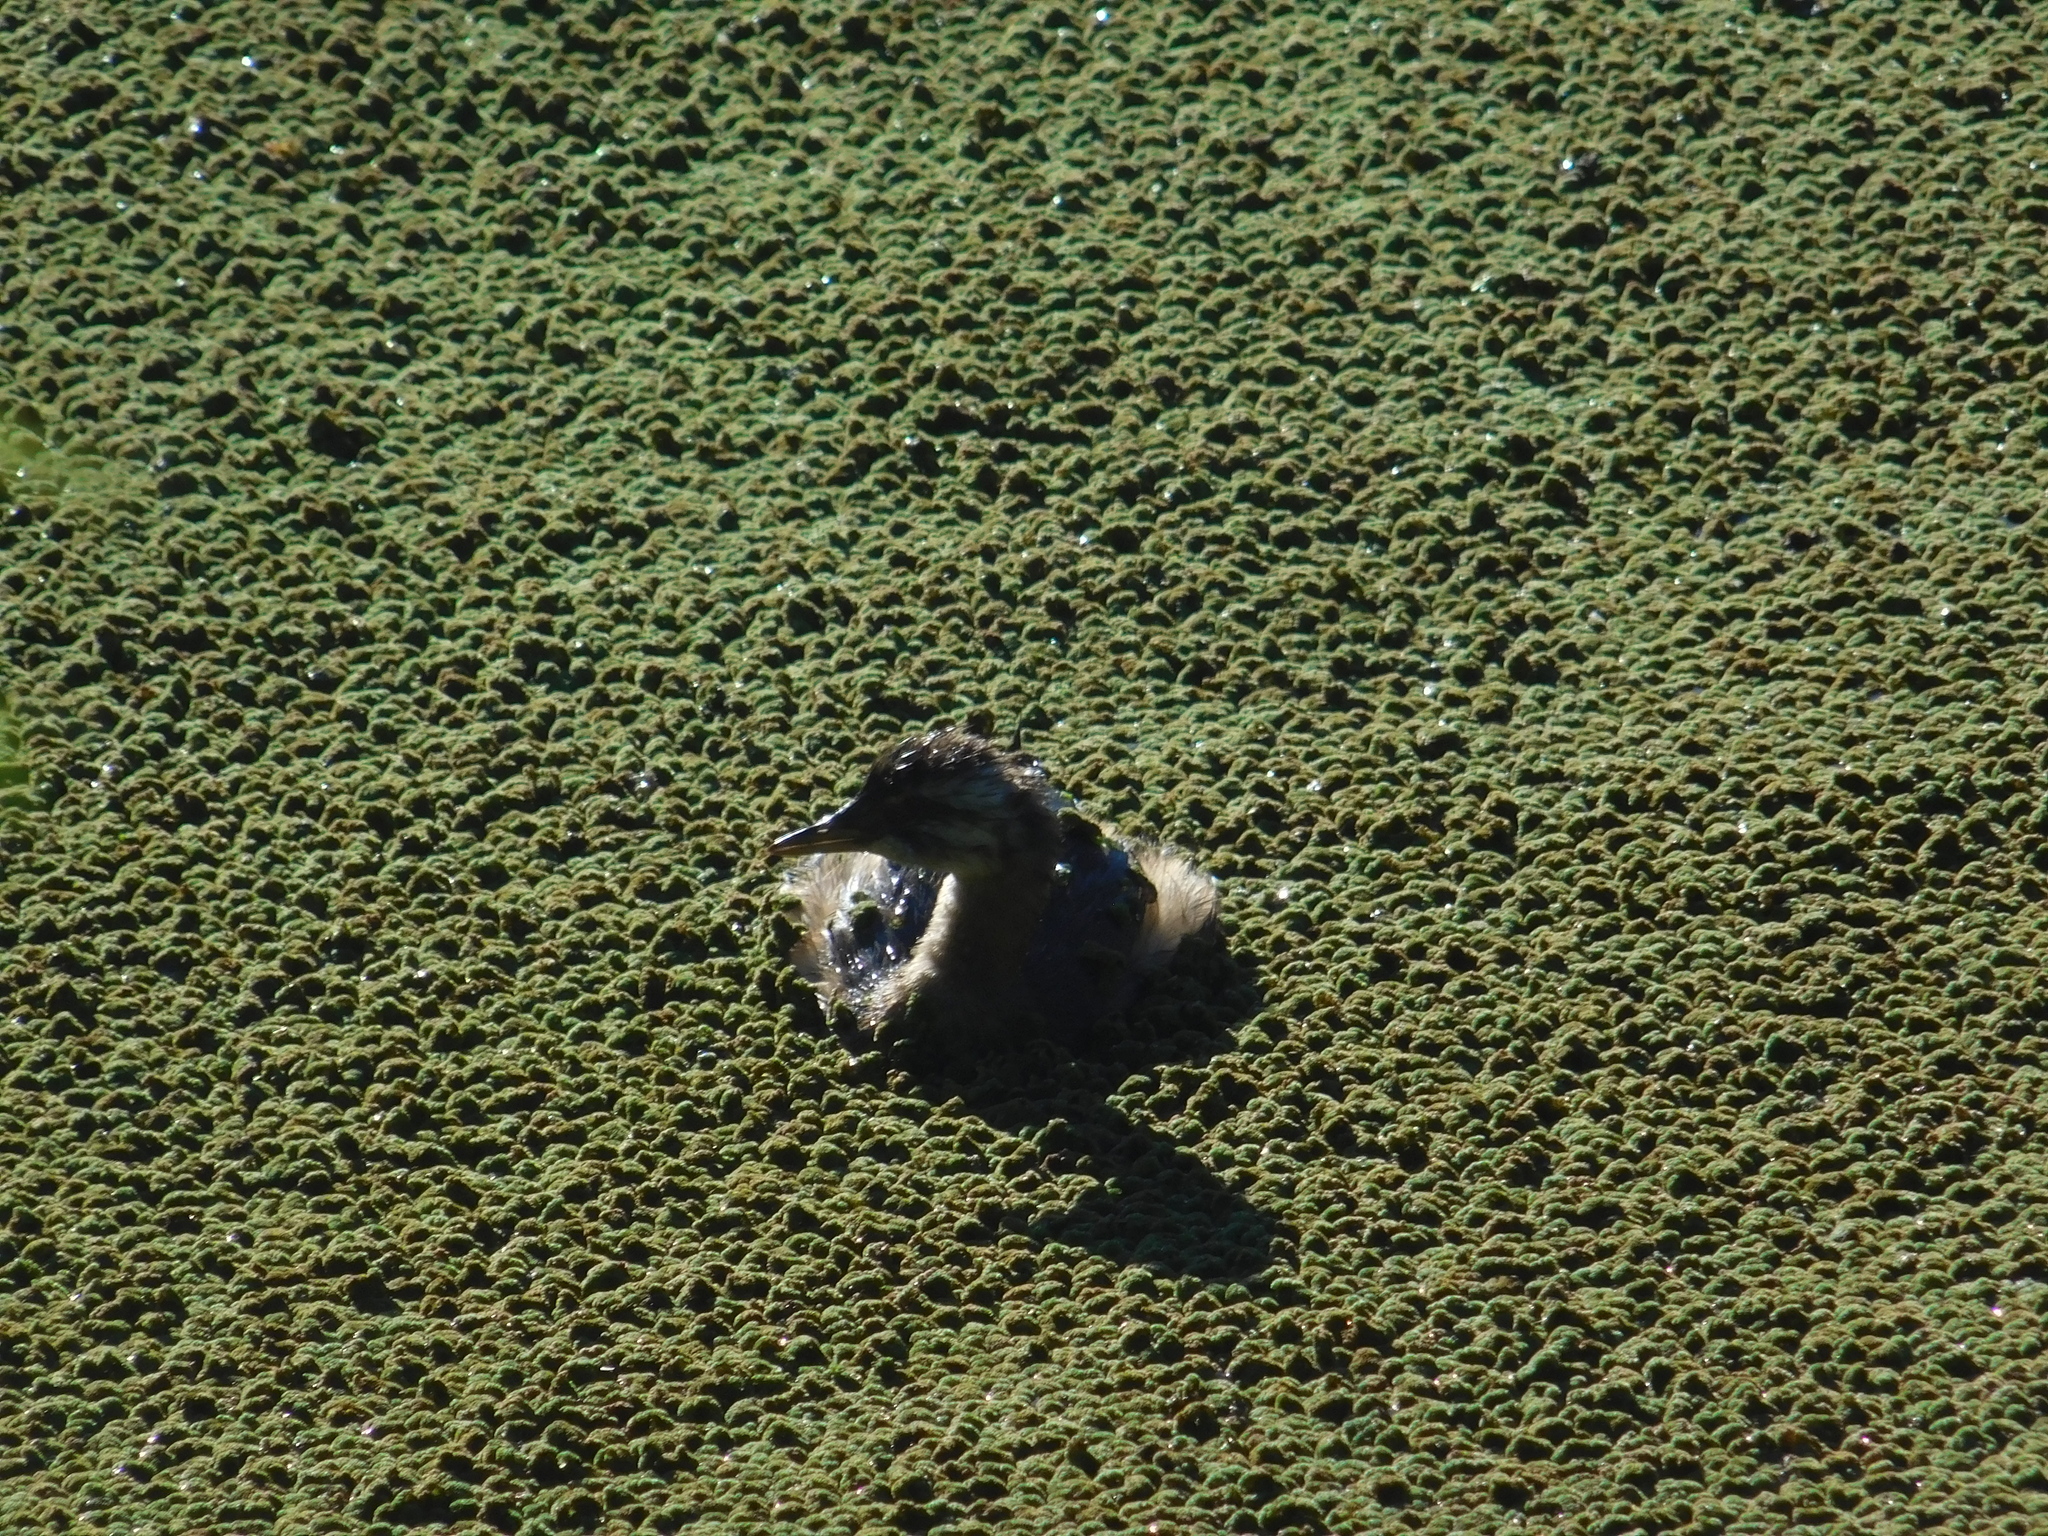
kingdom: Animalia
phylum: Chordata
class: Aves
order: Podicipediformes
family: Podicipedidae
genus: Rollandia
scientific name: Rollandia rolland
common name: White-tufted grebe
